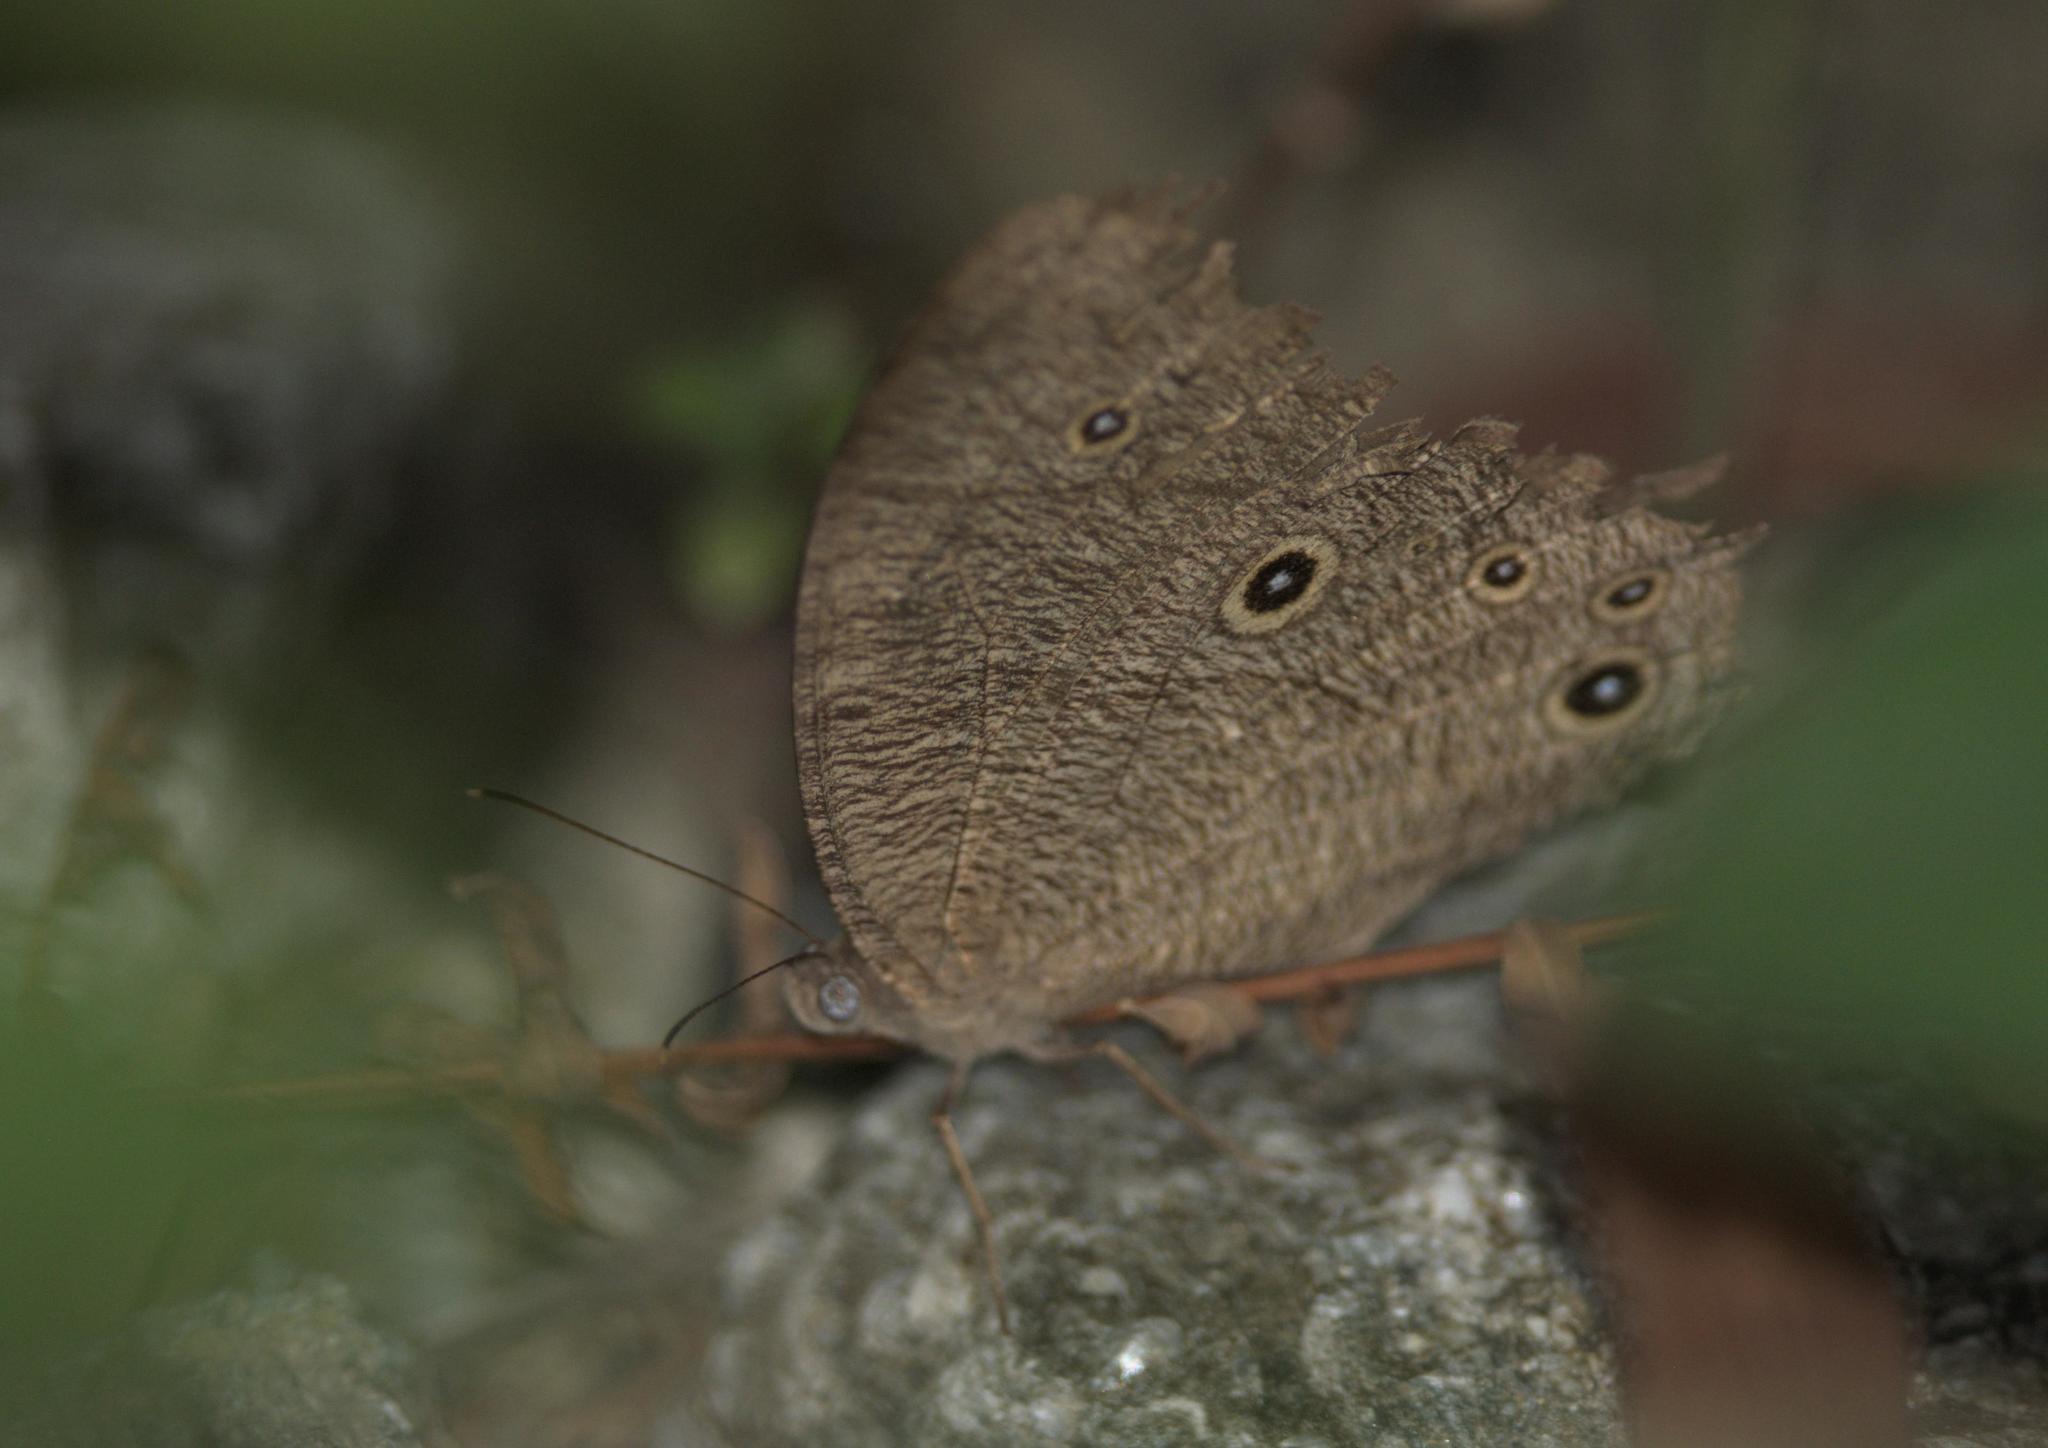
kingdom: Animalia
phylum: Arthropoda
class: Insecta
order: Lepidoptera
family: Nymphalidae
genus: Melanitis
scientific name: Melanitis leda
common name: Twilight brown
